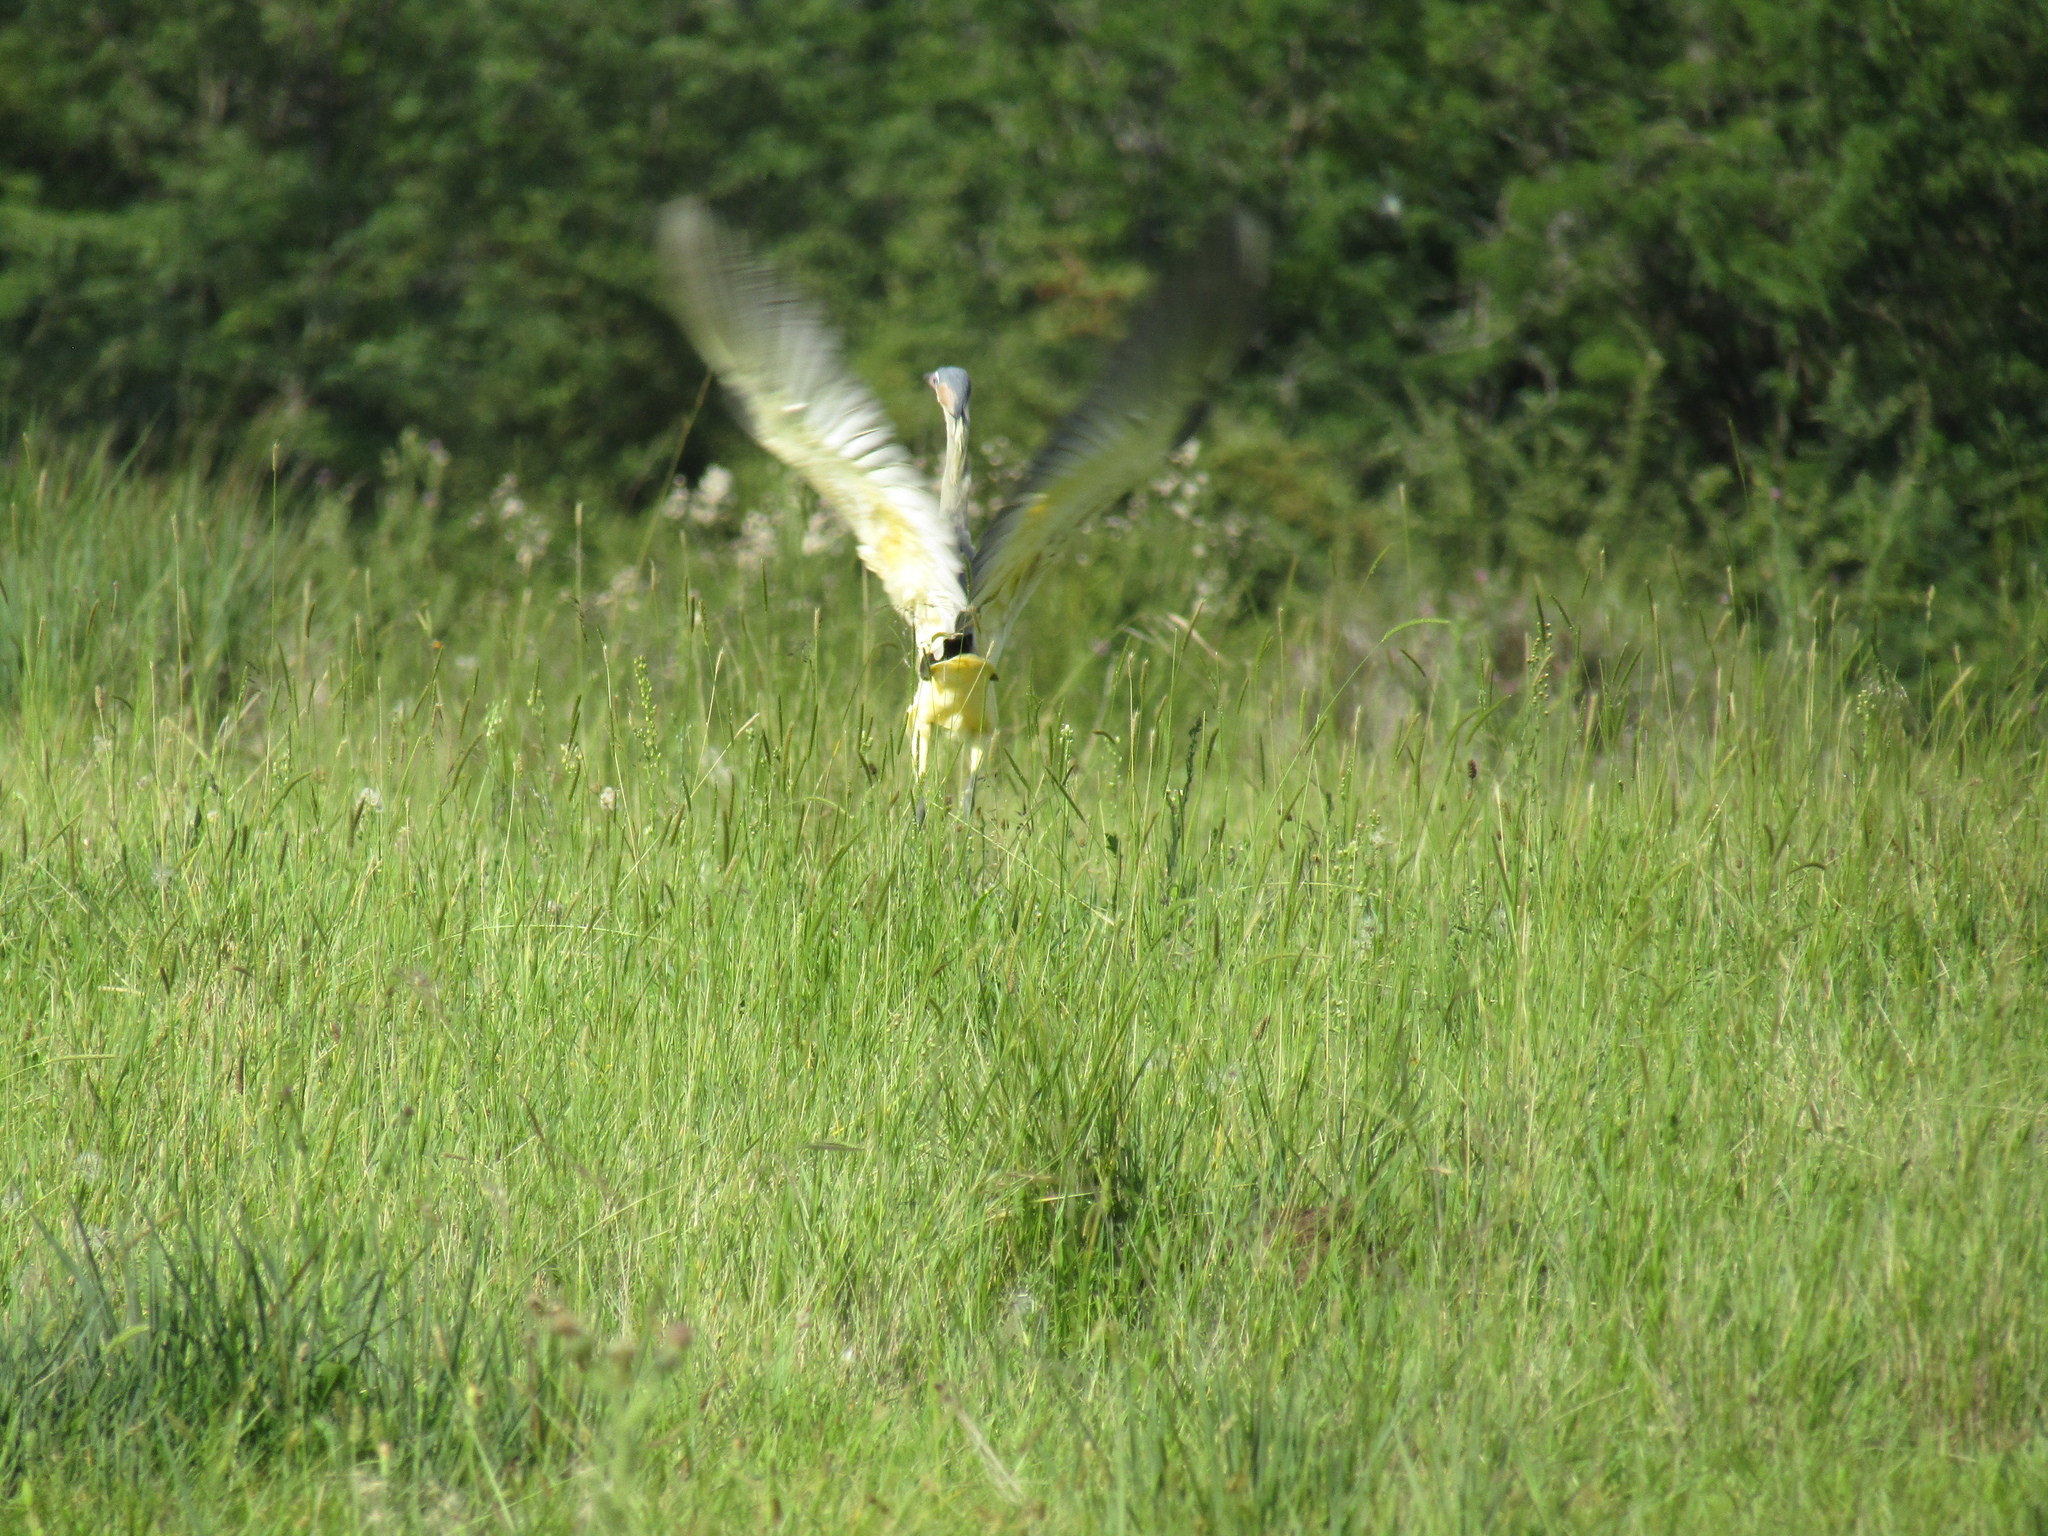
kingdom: Animalia
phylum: Chordata
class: Aves
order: Pelecaniformes
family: Ardeidae
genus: Syrigma
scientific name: Syrigma sibilatrix
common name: Whistling heron
